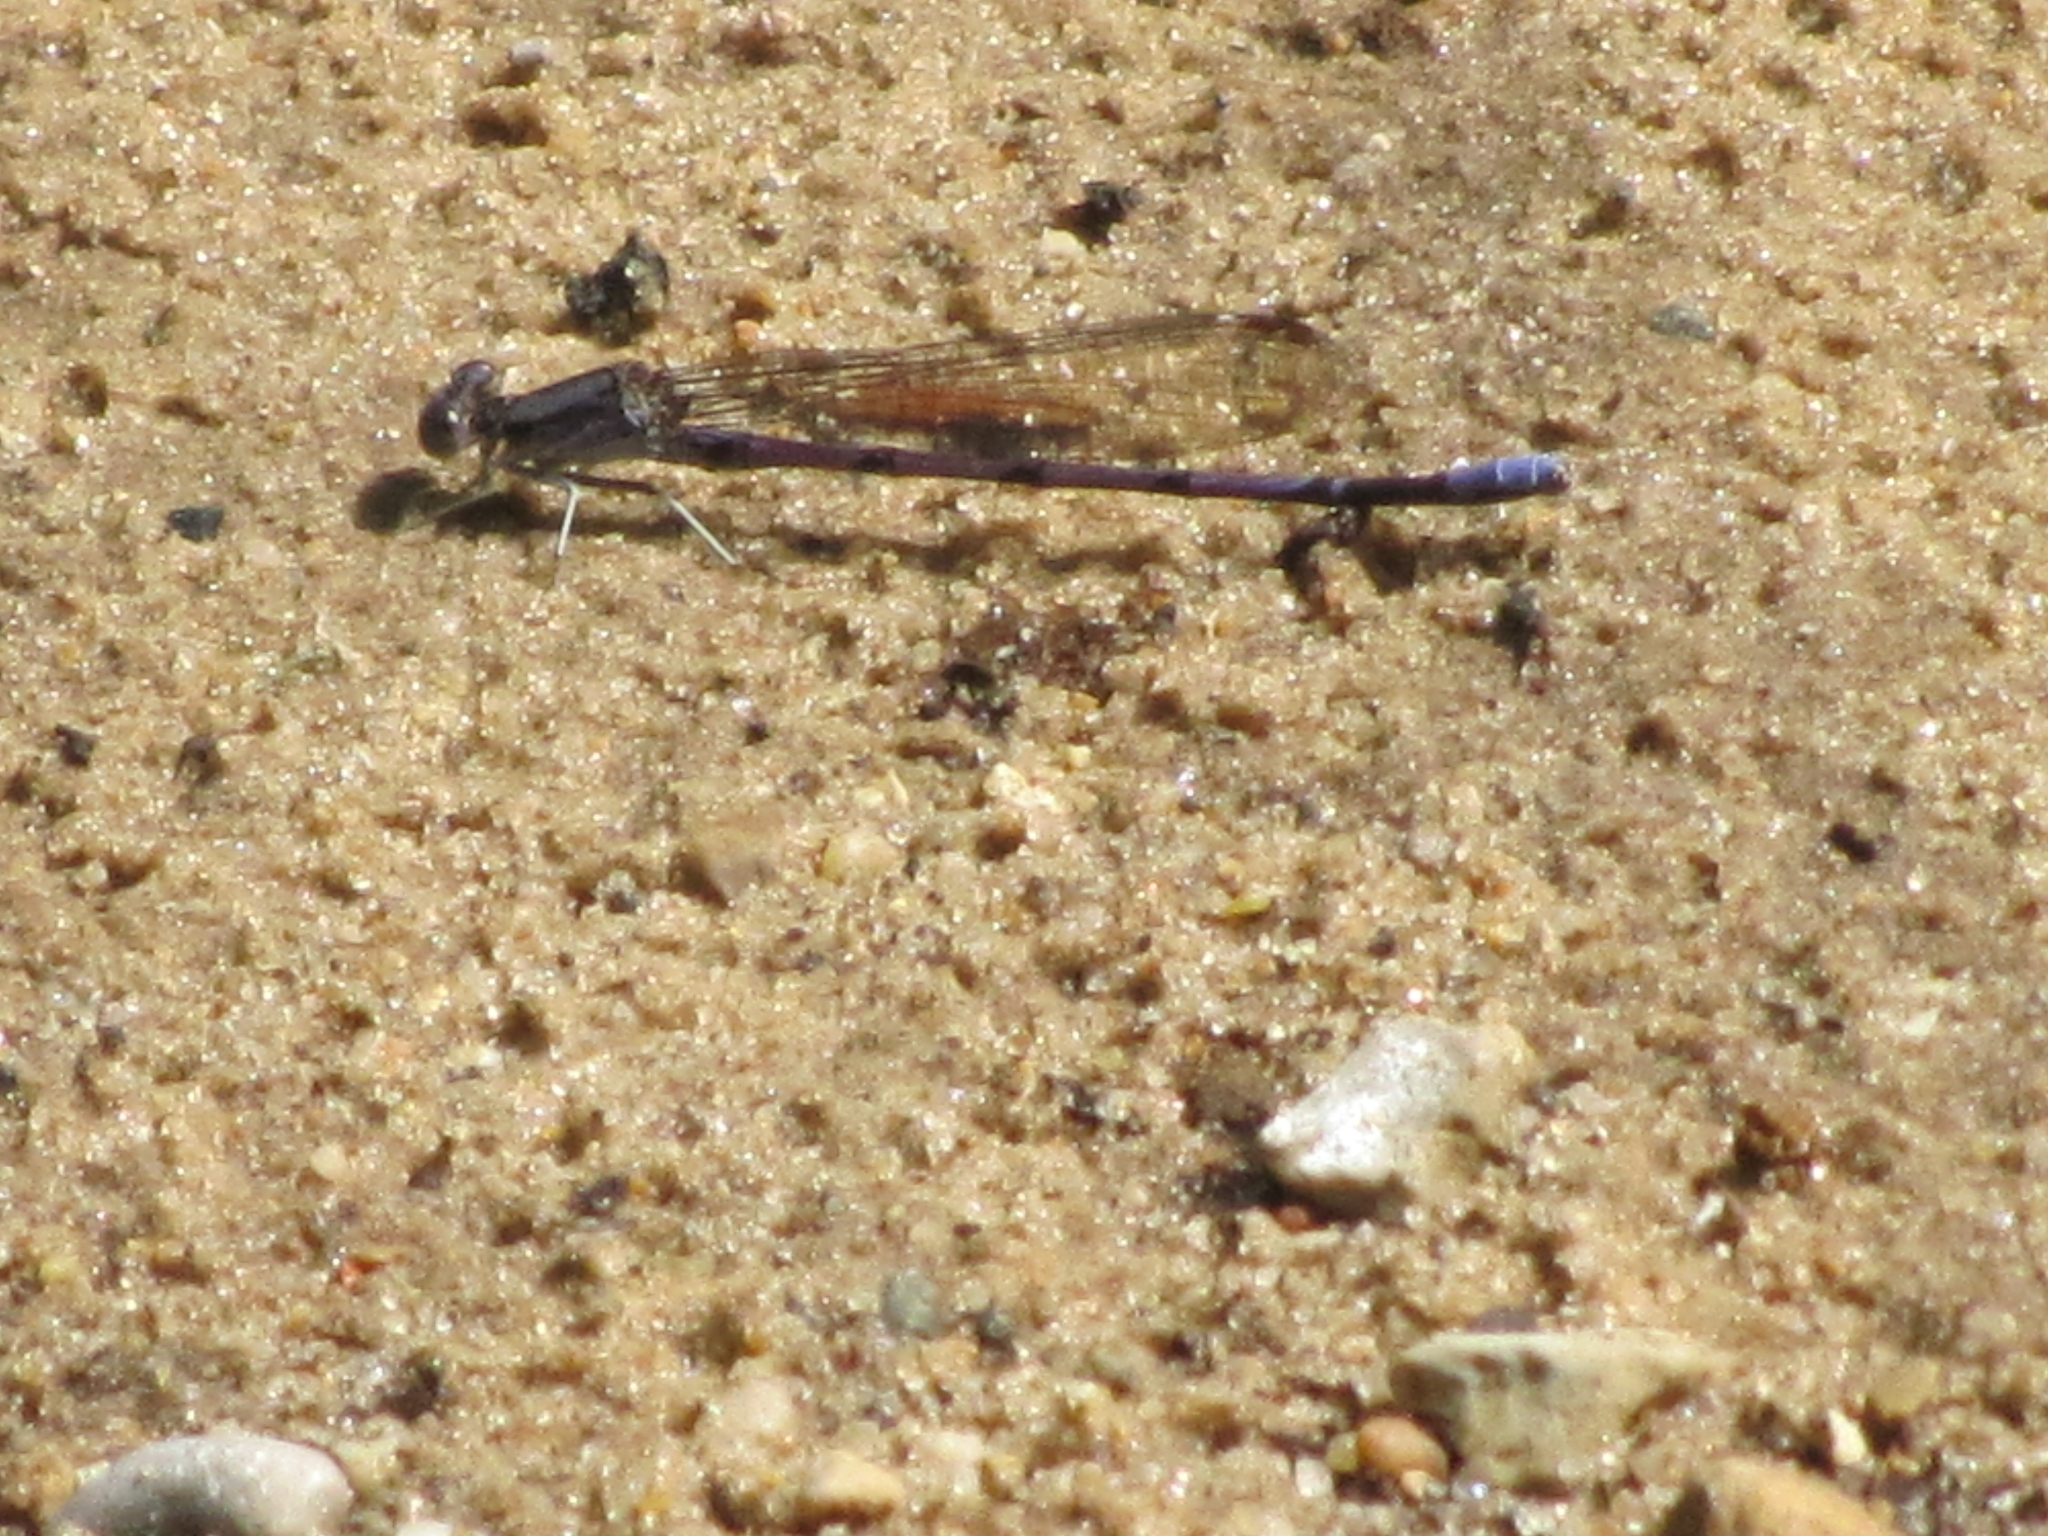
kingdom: Animalia
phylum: Arthropoda
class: Insecta
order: Odonata
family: Coenagrionidae
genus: Argia
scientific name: Argia fumipennis
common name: Variable dancer
